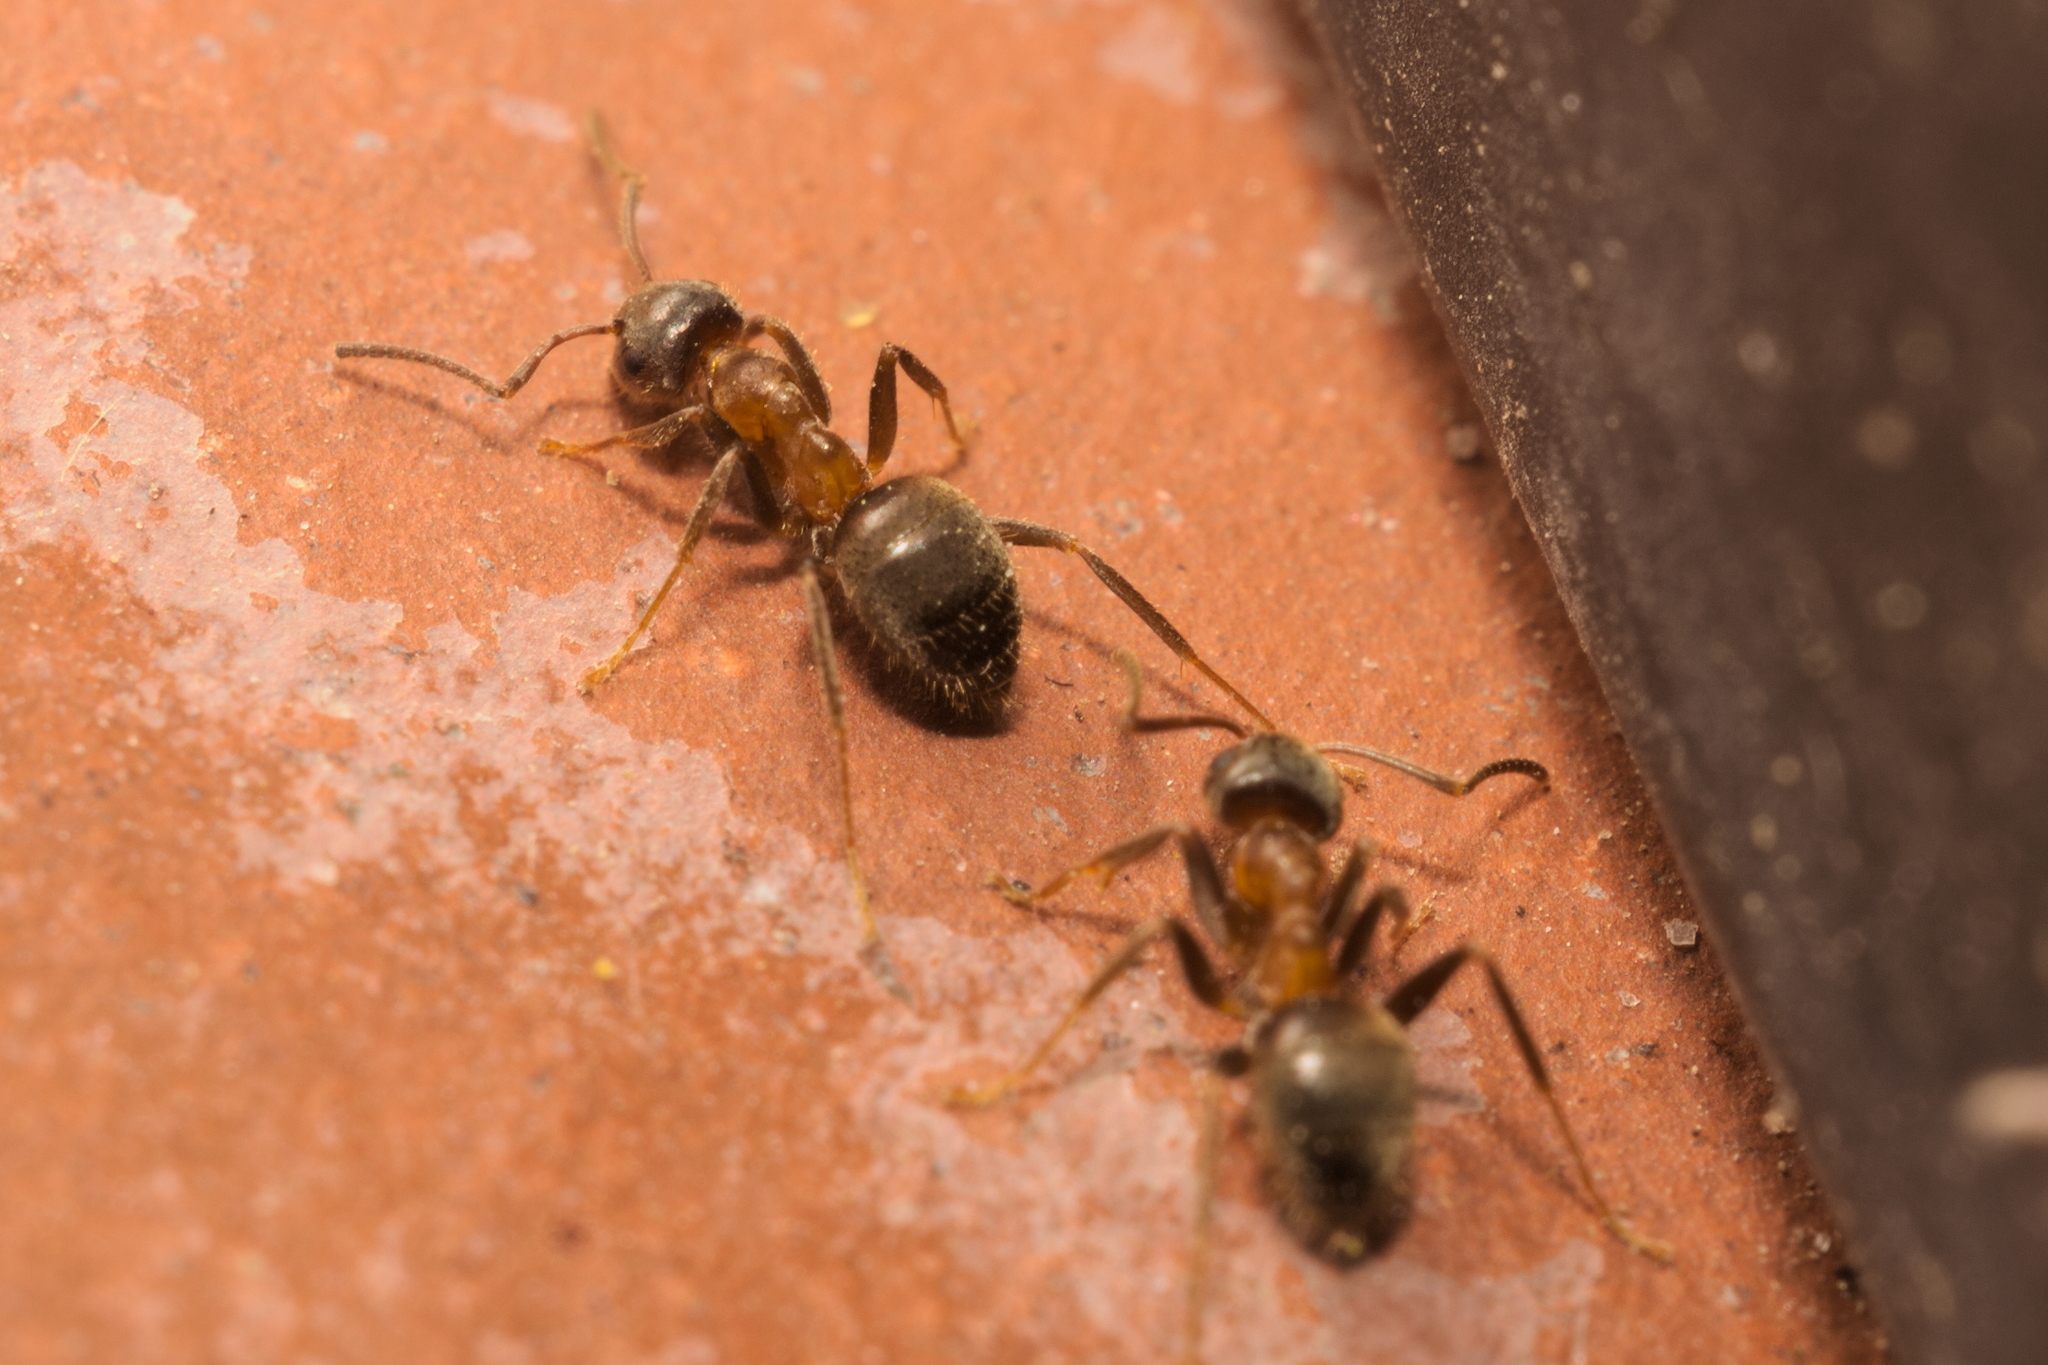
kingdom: Animalia
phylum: Arthropoda
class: Insecta
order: Hymenoptera
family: Formicidae
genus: Lasius
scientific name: Lasius emarginatus
